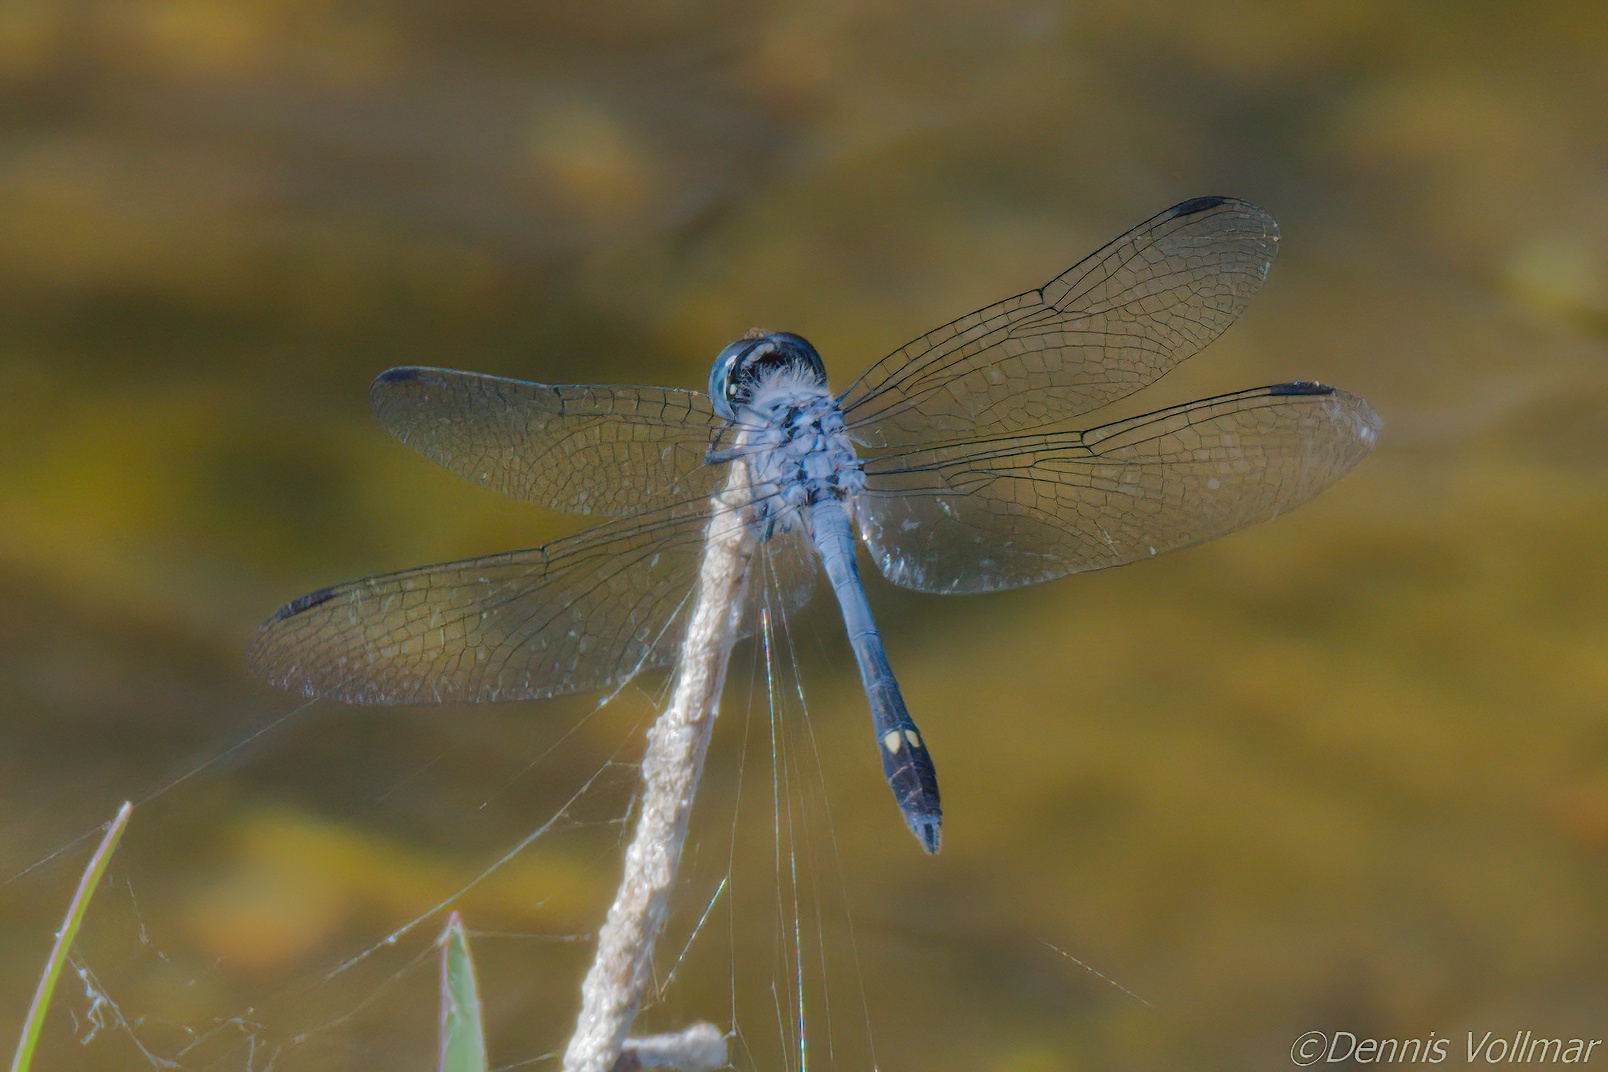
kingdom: Animalia
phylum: Arthropoda
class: Insecta
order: Odonata
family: Libellulidae
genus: Micrathyria
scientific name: Micrathyria aequalis
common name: Spot-tailed dasher
